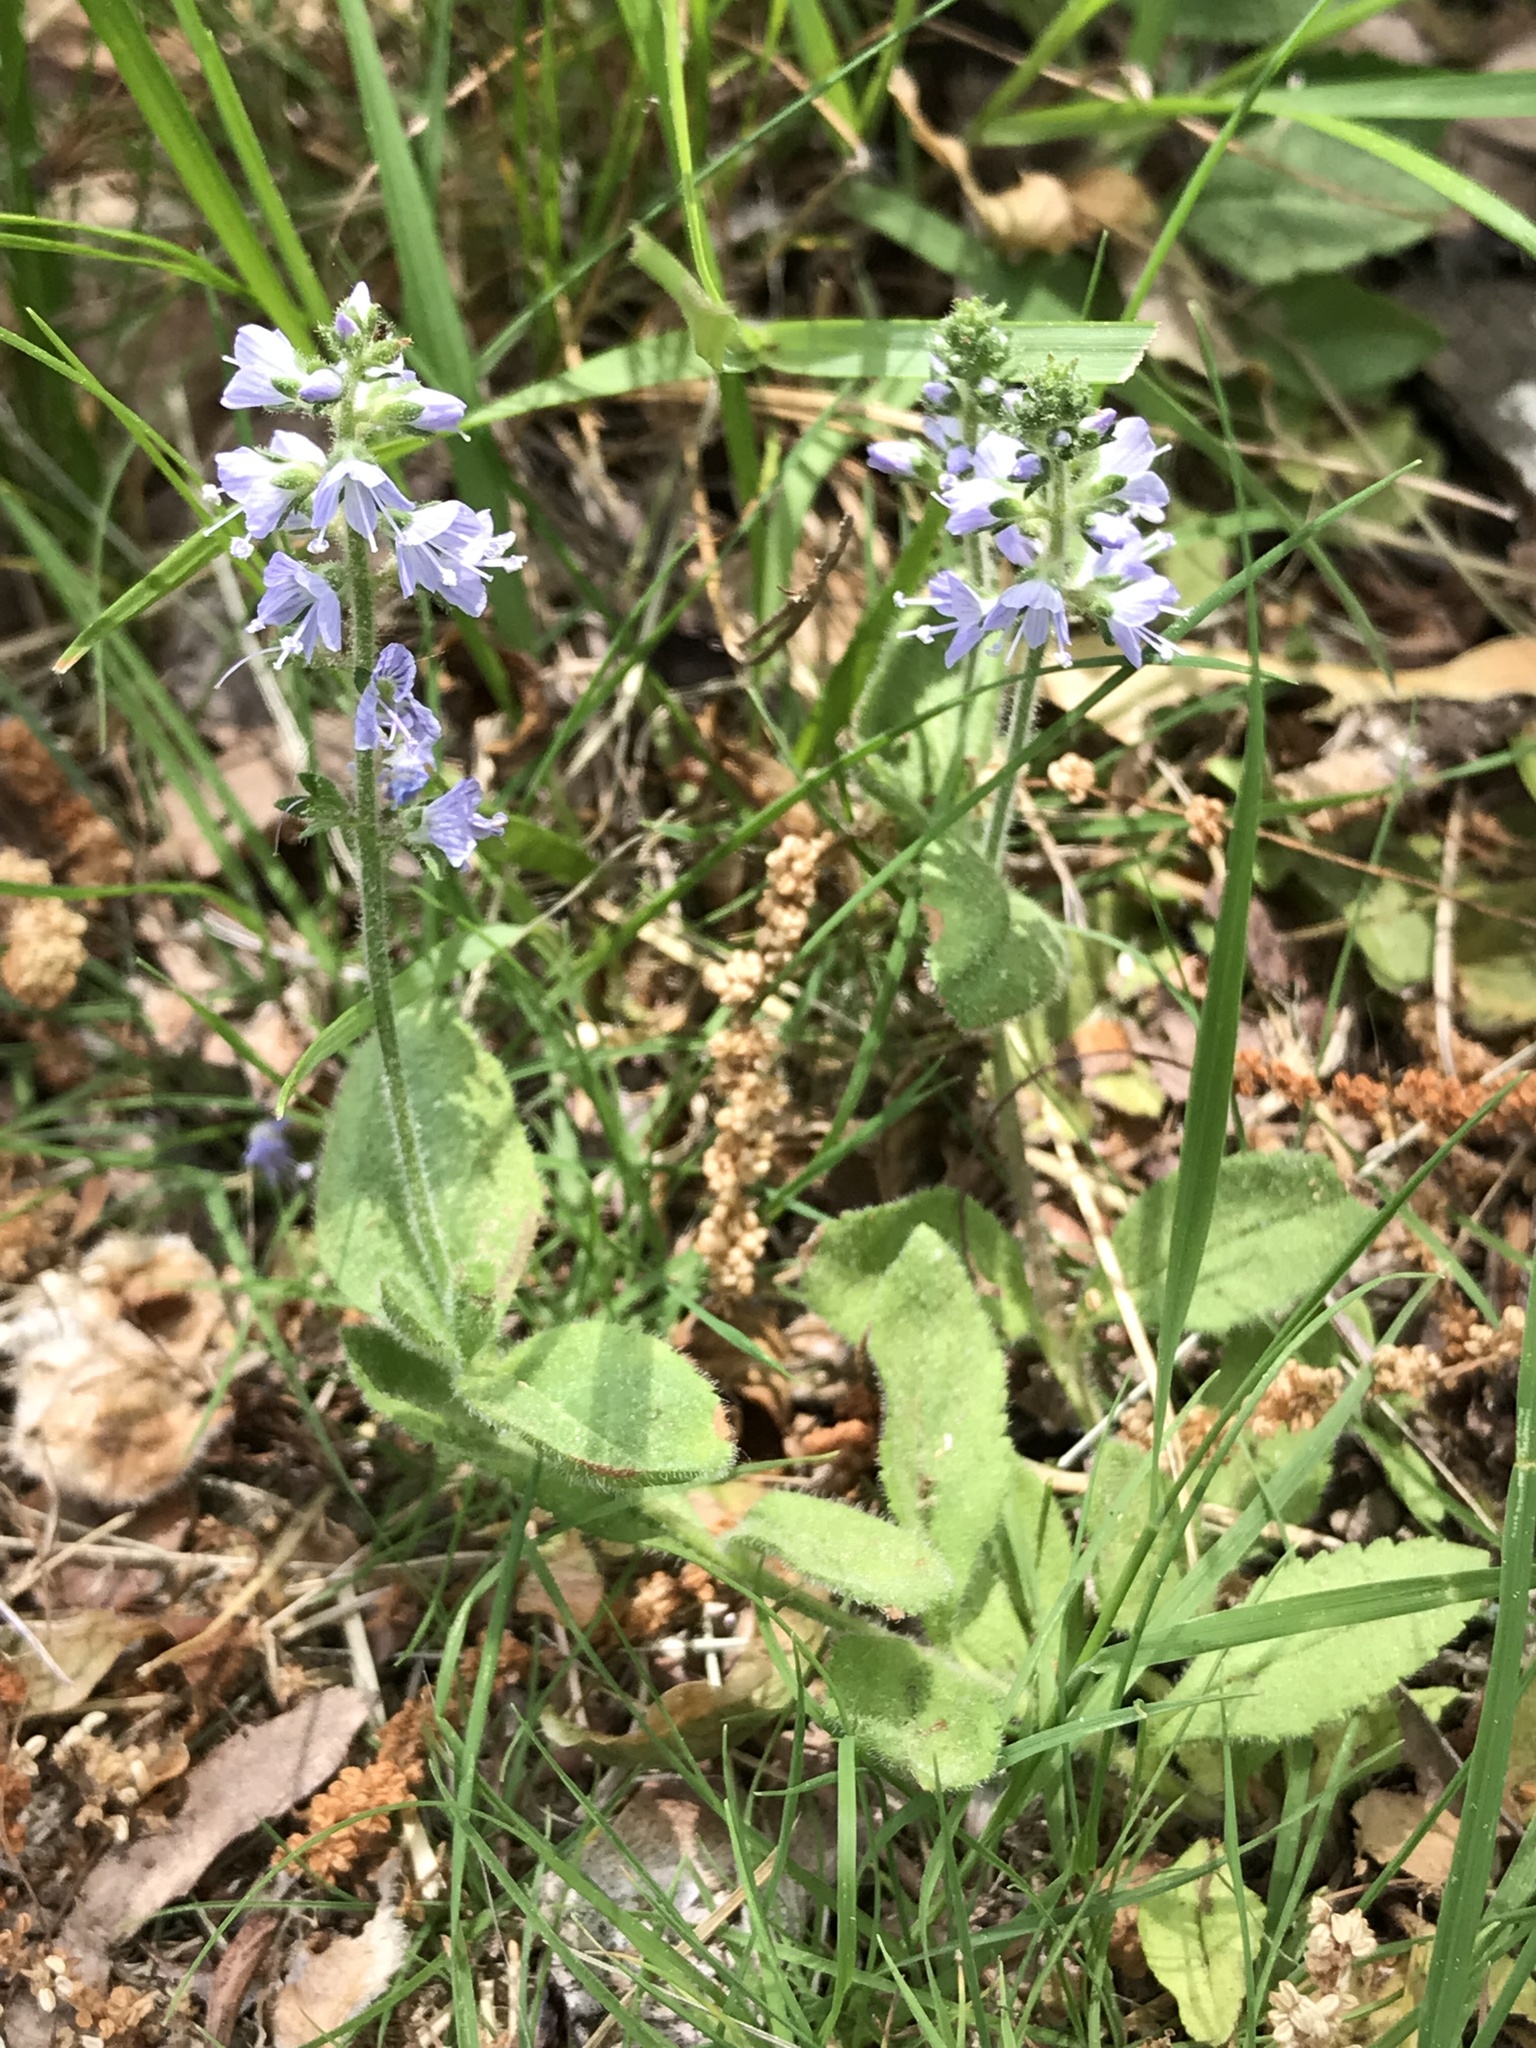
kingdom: Plantae
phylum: Tracheophyta
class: Magnoliopsida
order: Lamiales
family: Plantaginaceae
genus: Veronica
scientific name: Veronica officinalis
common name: Common speedwell
